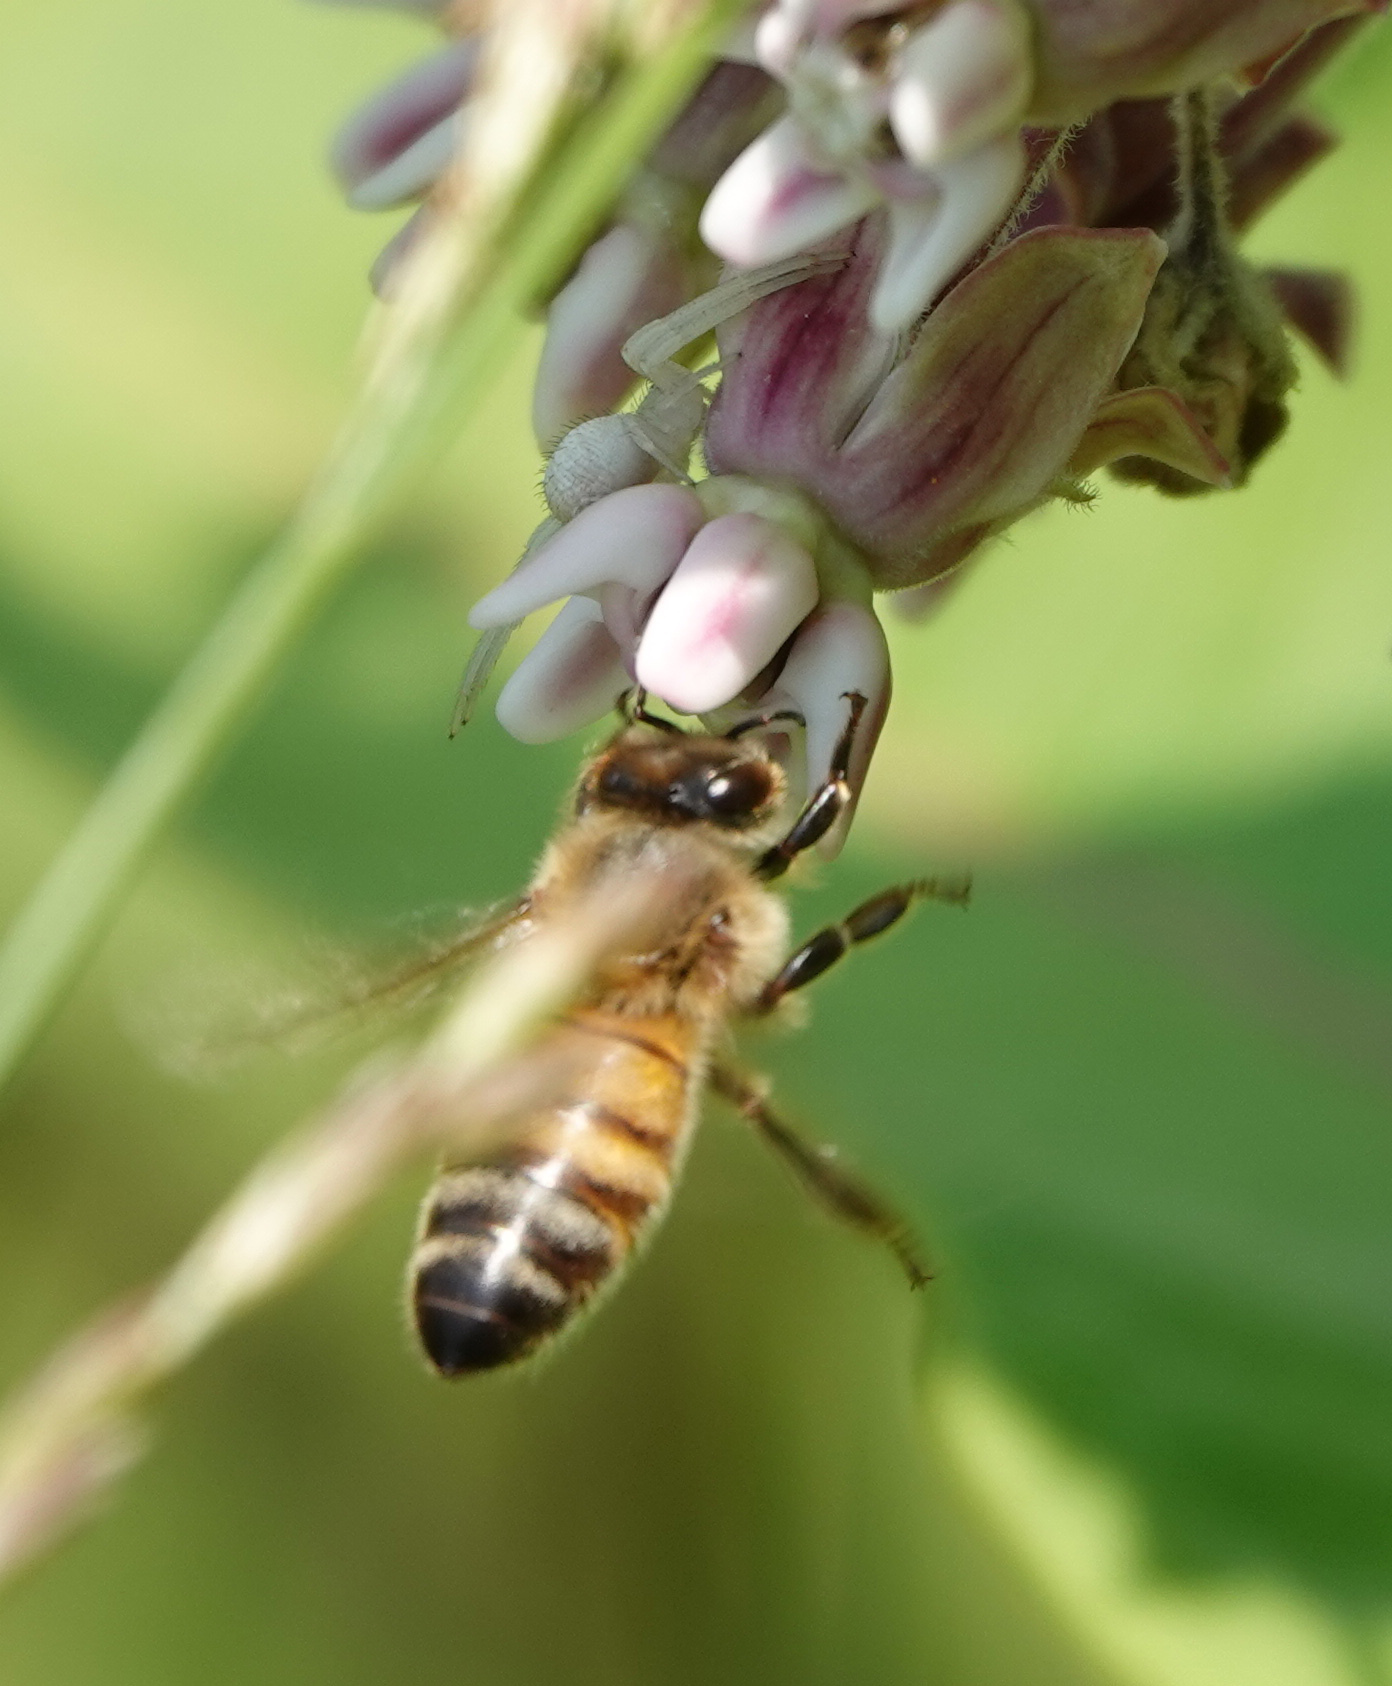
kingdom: Animalia
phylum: Arthropoda
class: Insecta
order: Hymenoptera
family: Apidae
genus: Apis
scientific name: Apis mellifera
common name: Honey bee
